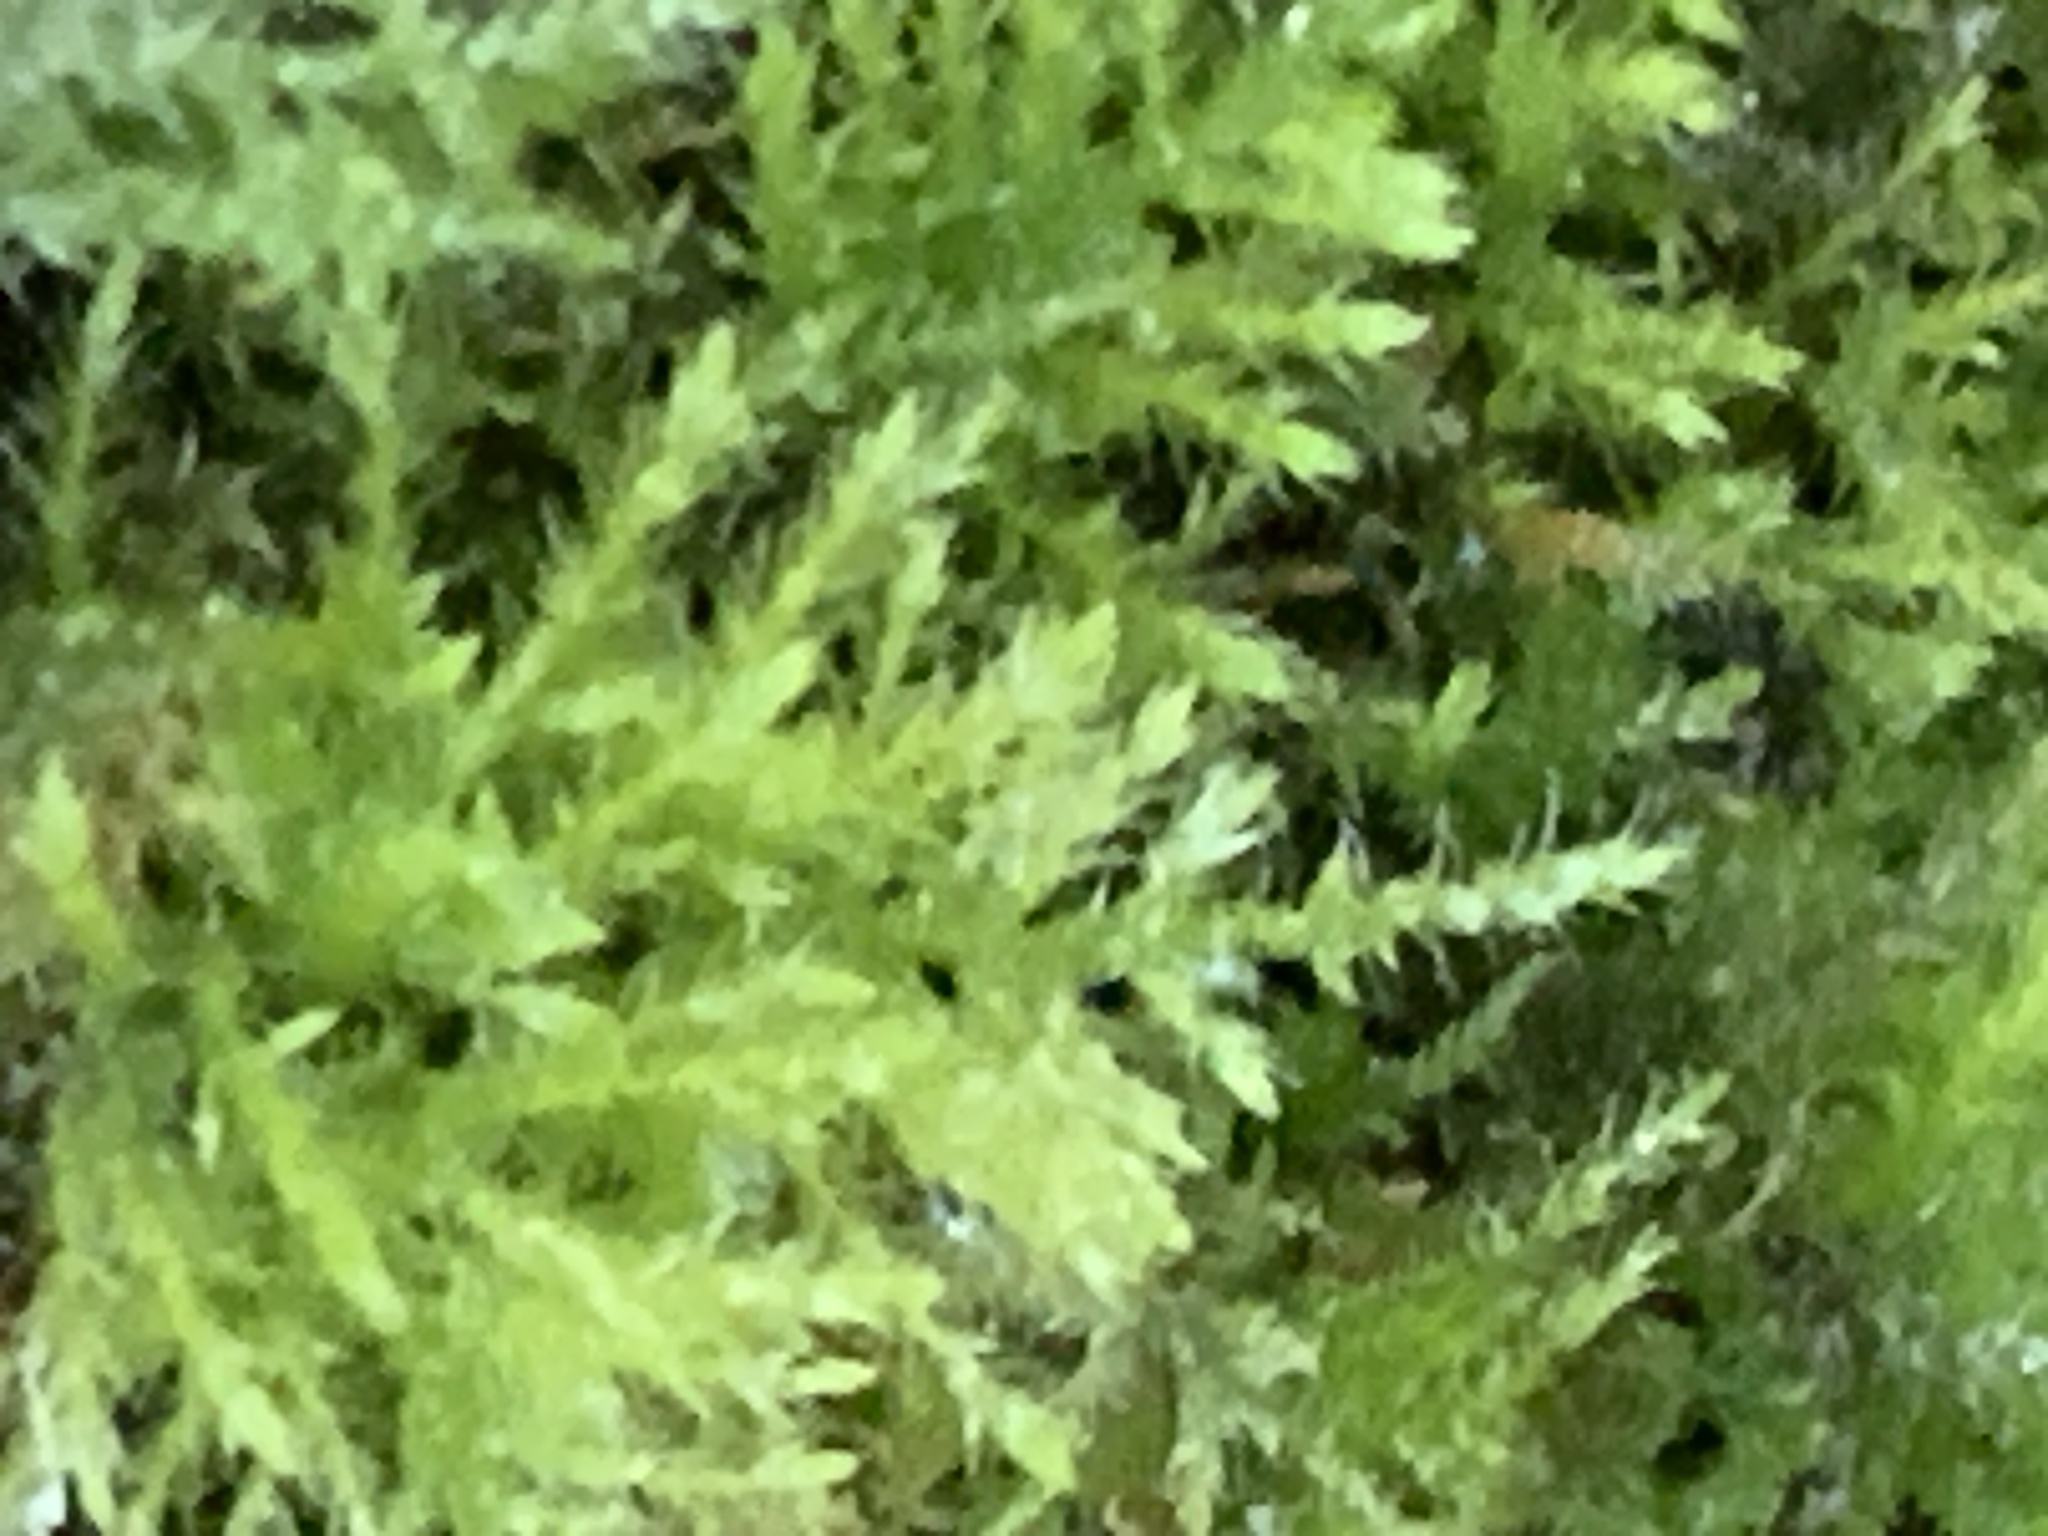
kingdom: Plantae
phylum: Bryophyta
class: Bryopsida
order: Hypnales
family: Brachytheciaceae
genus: Kindbergia
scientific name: Kindbergia praelonga
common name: Slender beaked moss
